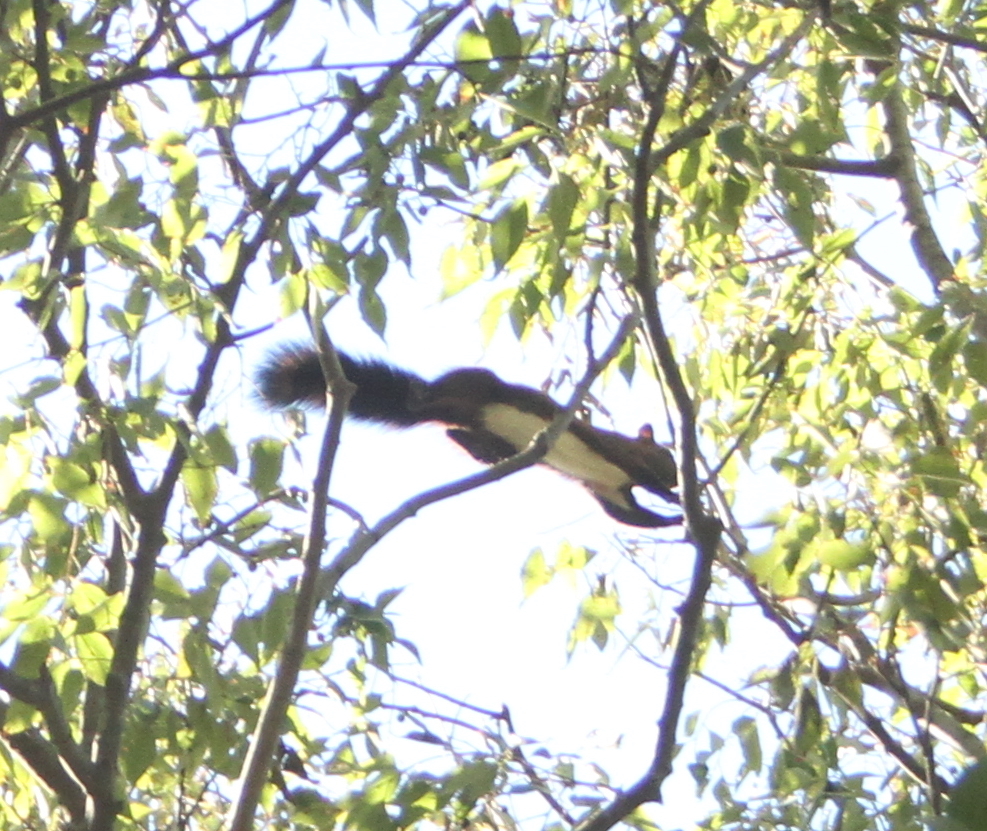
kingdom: Animalia
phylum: Chordata
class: Mammalia
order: Rodentia
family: Sciuridae
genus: Sciurus
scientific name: Sciurus vulgaris
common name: Eurasian red squirrel
